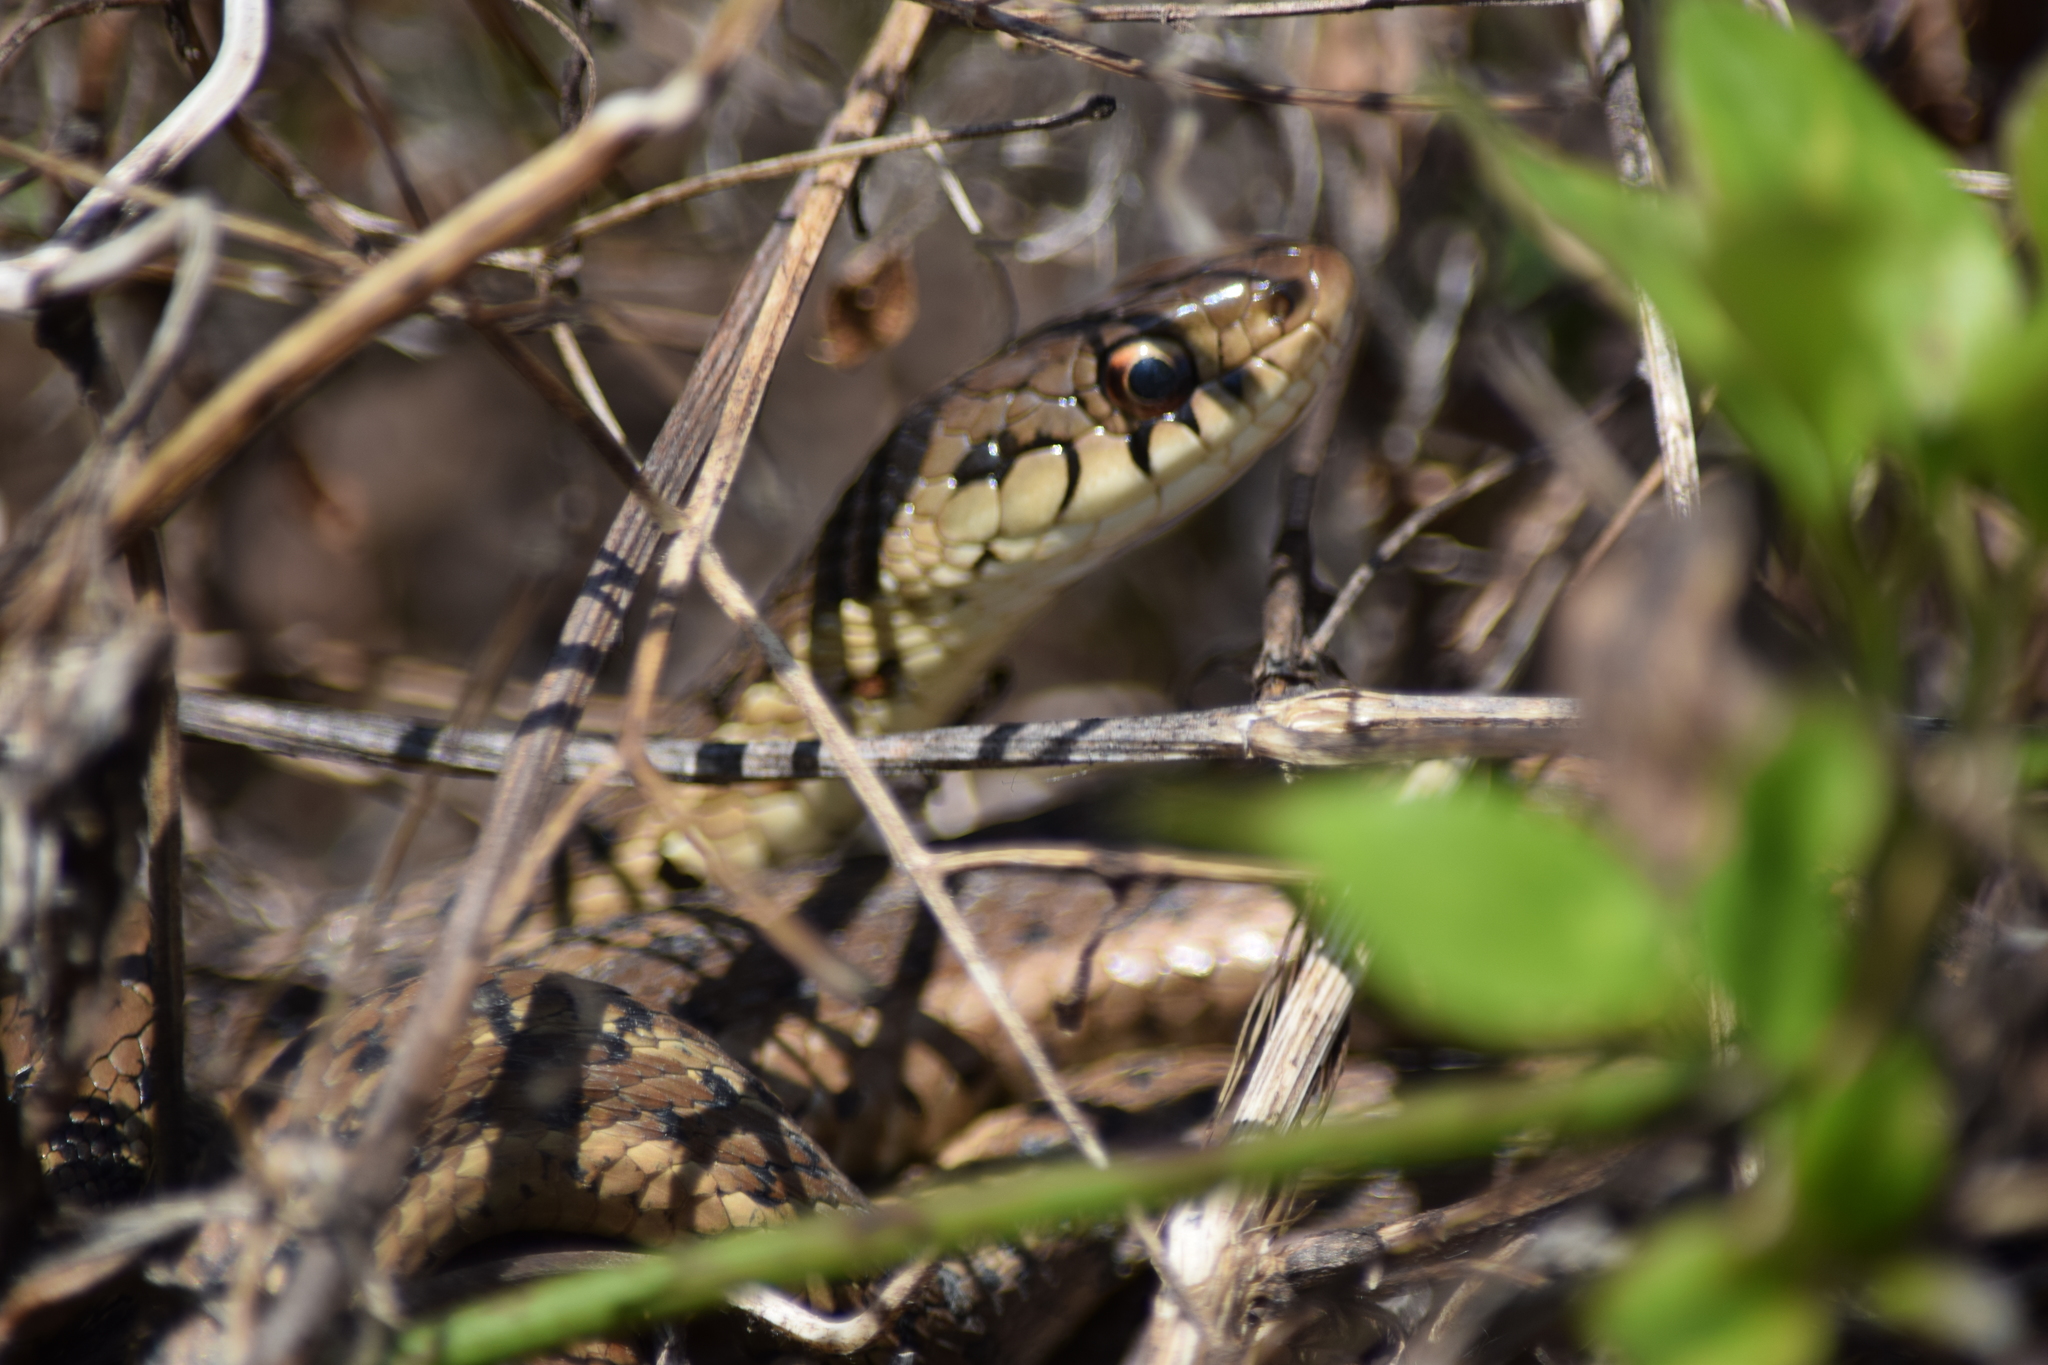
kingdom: Animalia
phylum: Chordata
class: Squamata
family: Colubridae
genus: Thamnophis
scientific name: Thamnophis sirtalis
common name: Common garter snake
